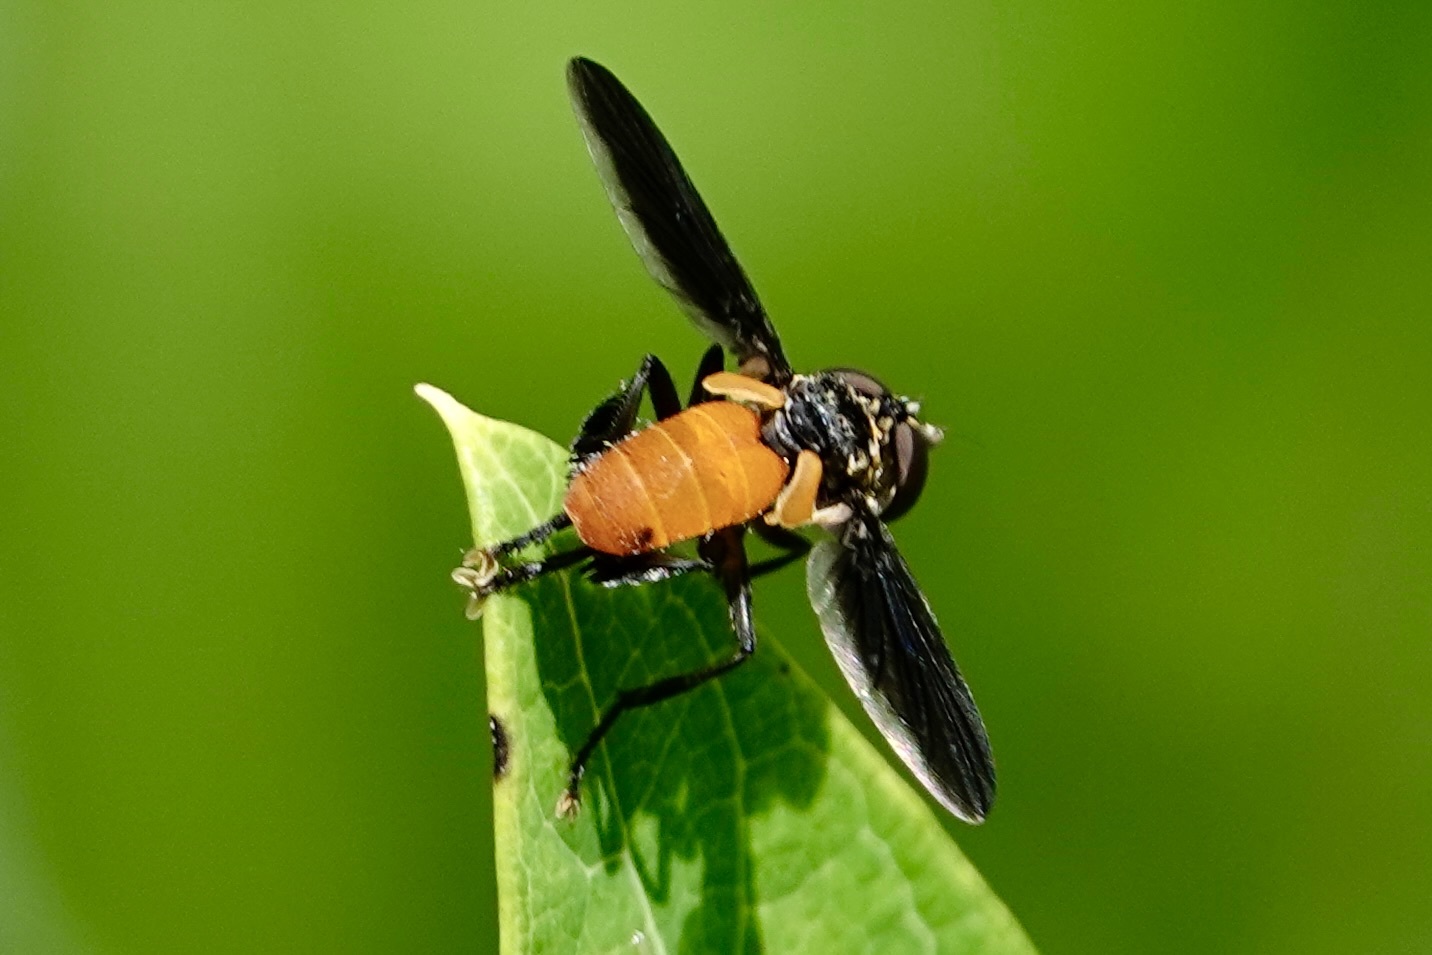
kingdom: Animalia
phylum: Arthropoda
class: Insecta
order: Diptera
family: Tachinidae
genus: Trichopoda
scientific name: Trichopoda pennipes
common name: Tachinid fly
